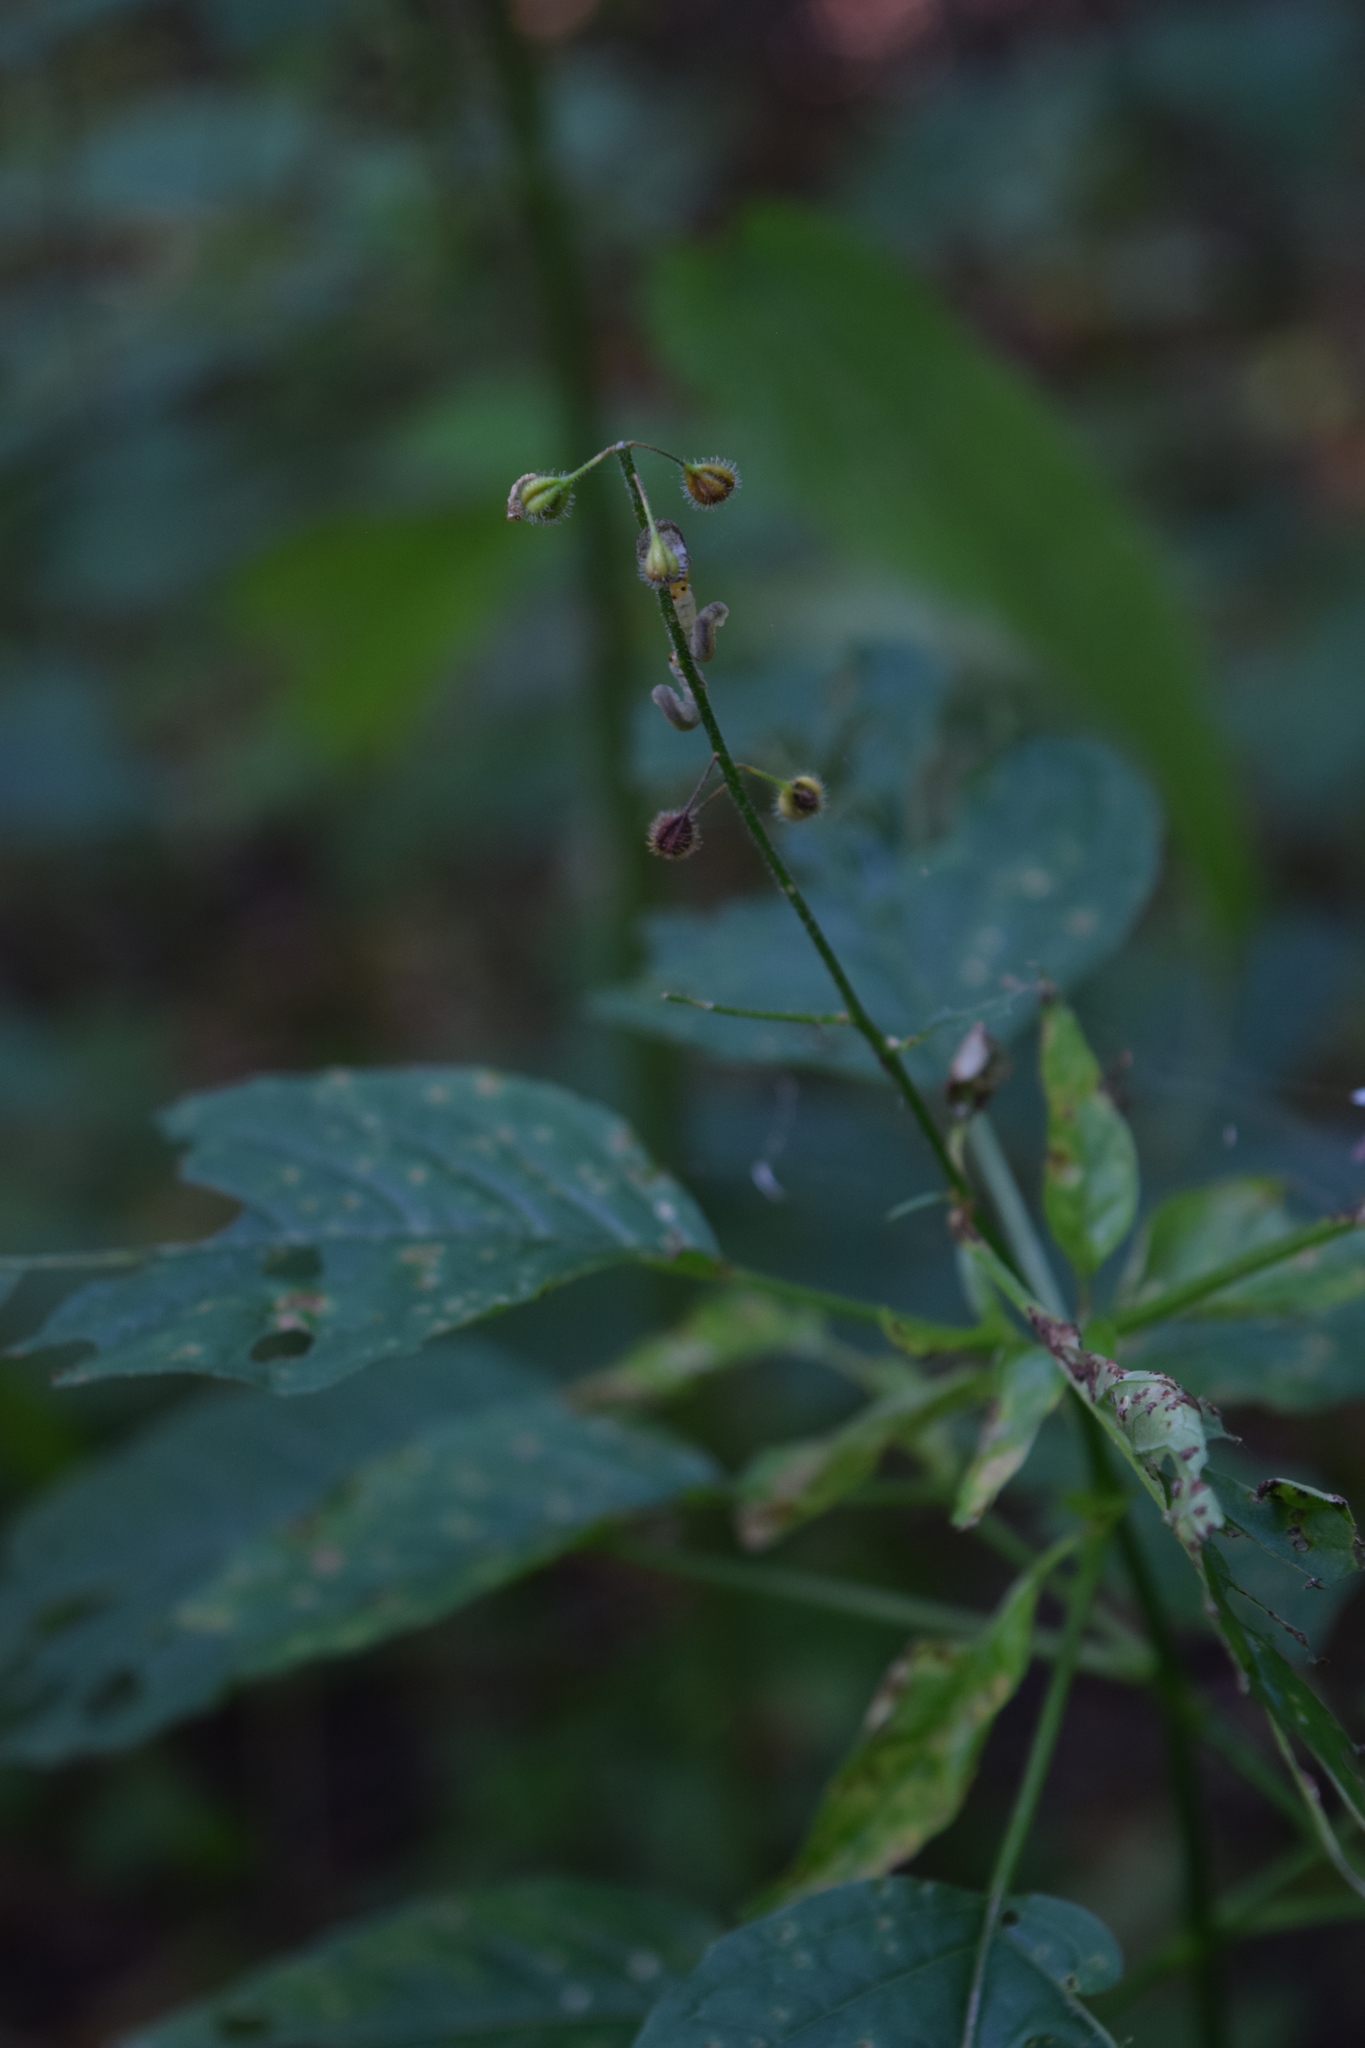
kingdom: Plantae
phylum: Tracheophyta
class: Magnoliopsida
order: Myrtales
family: Onagraceae
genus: Circaea
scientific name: Circaea lutetiana
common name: Enchanter's-nightshade
